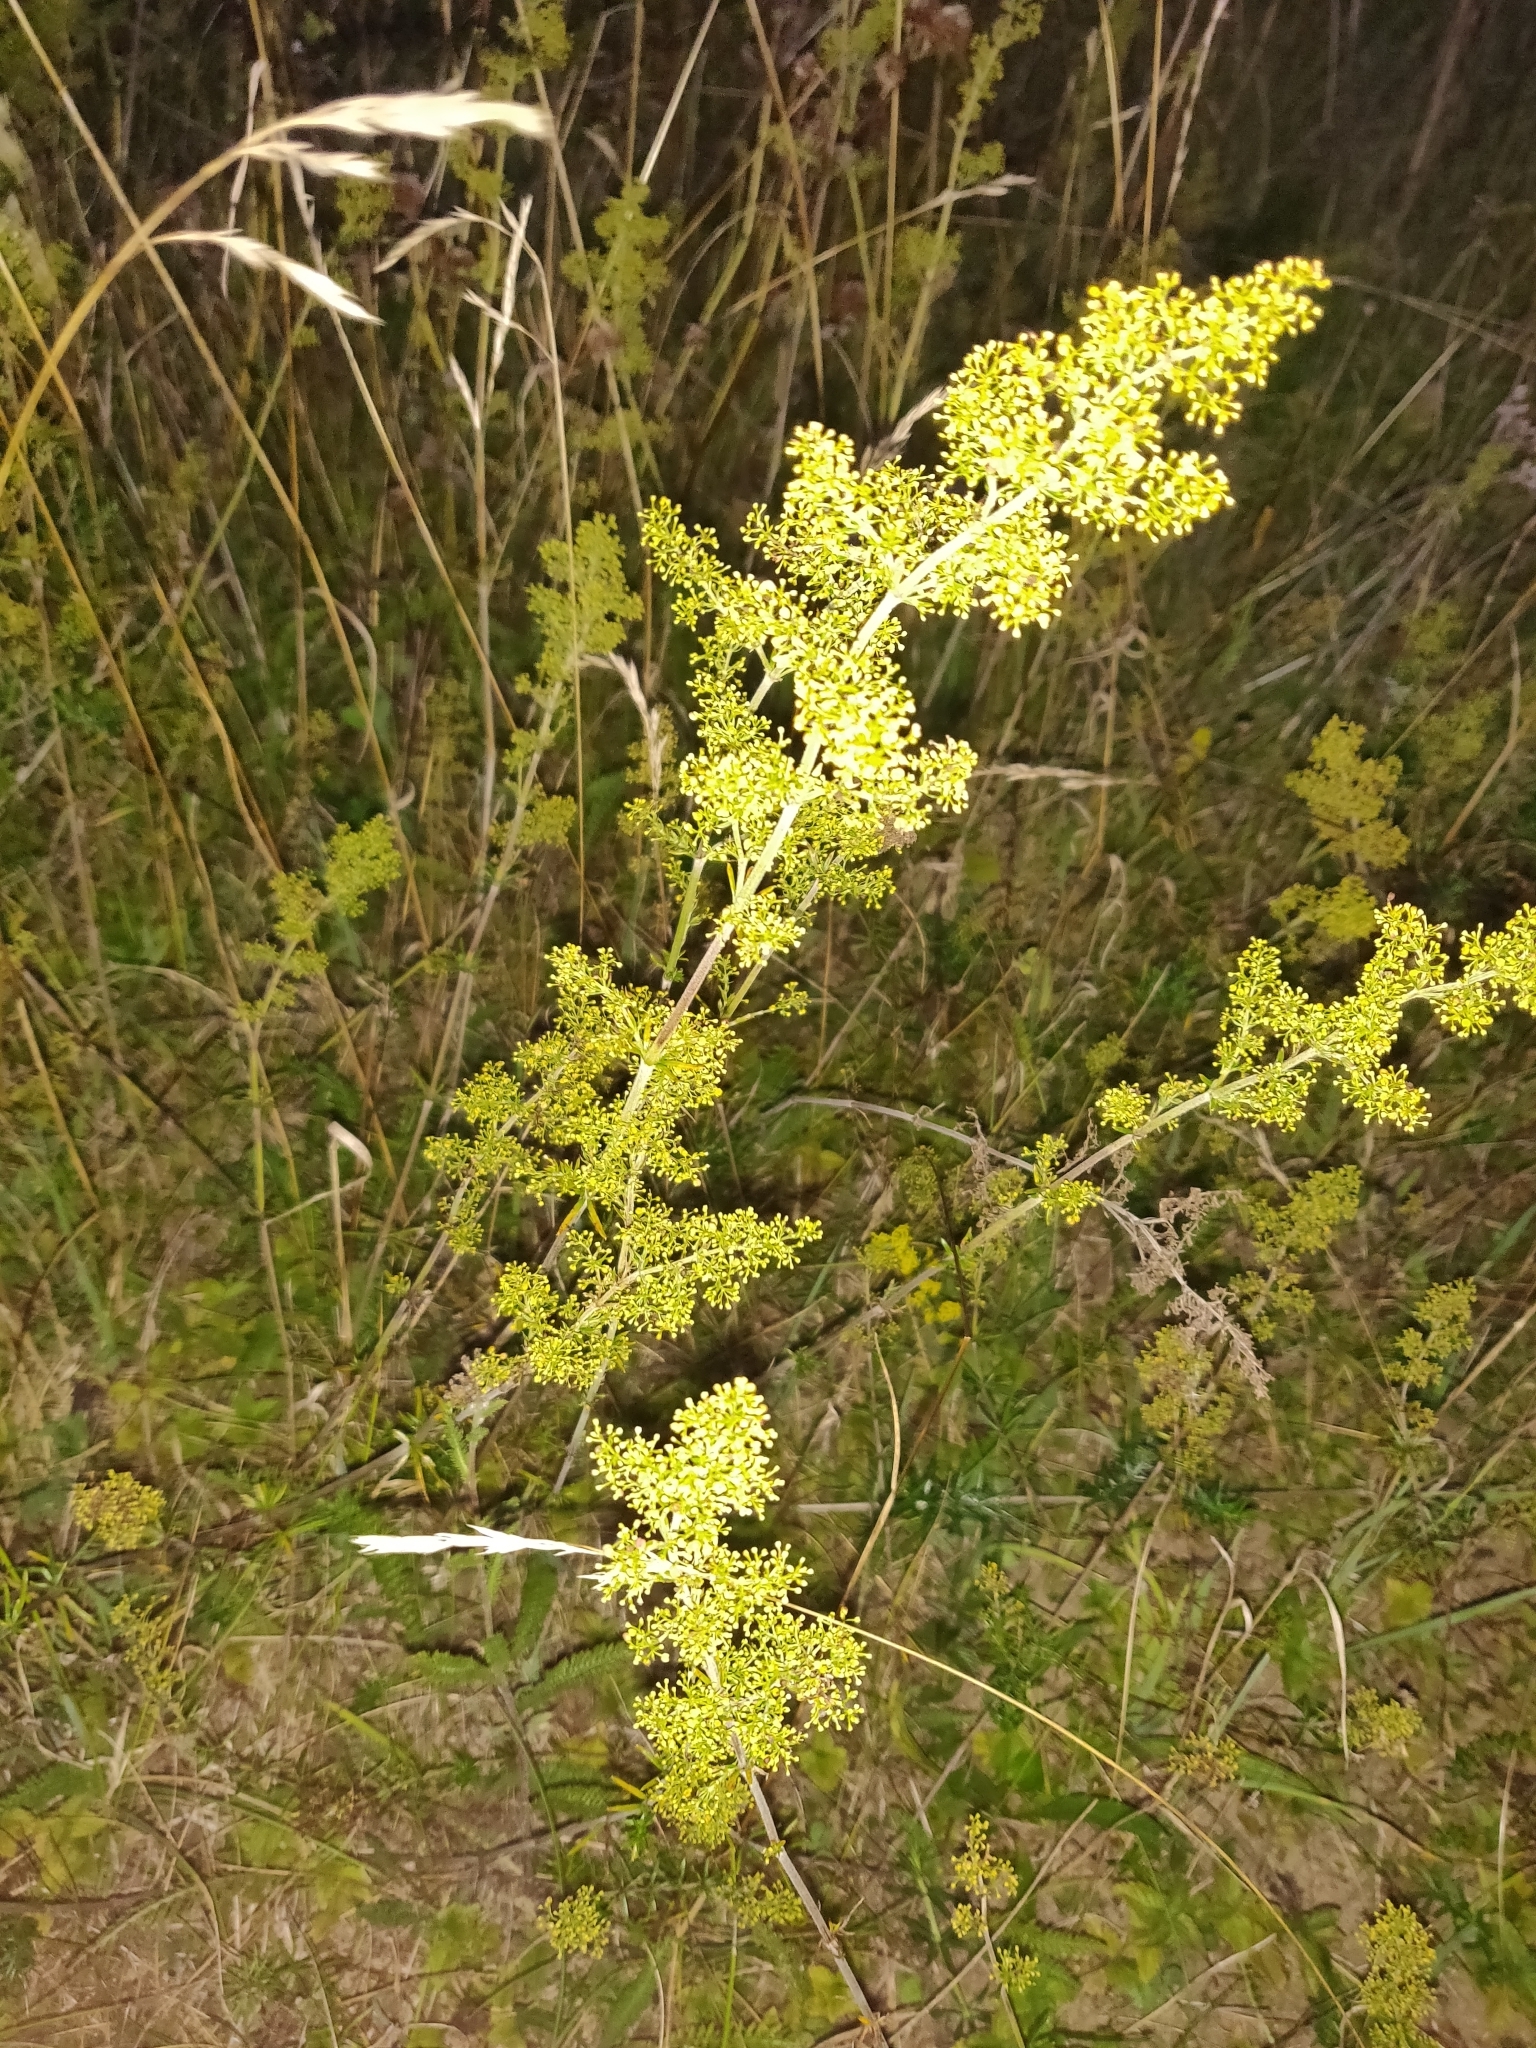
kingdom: Plantae
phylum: Tracheophyta
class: Magnoliopsida
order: Gentianales
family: Rubiaceae
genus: Galium
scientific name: Galium verum
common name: Lady's bedstraw
